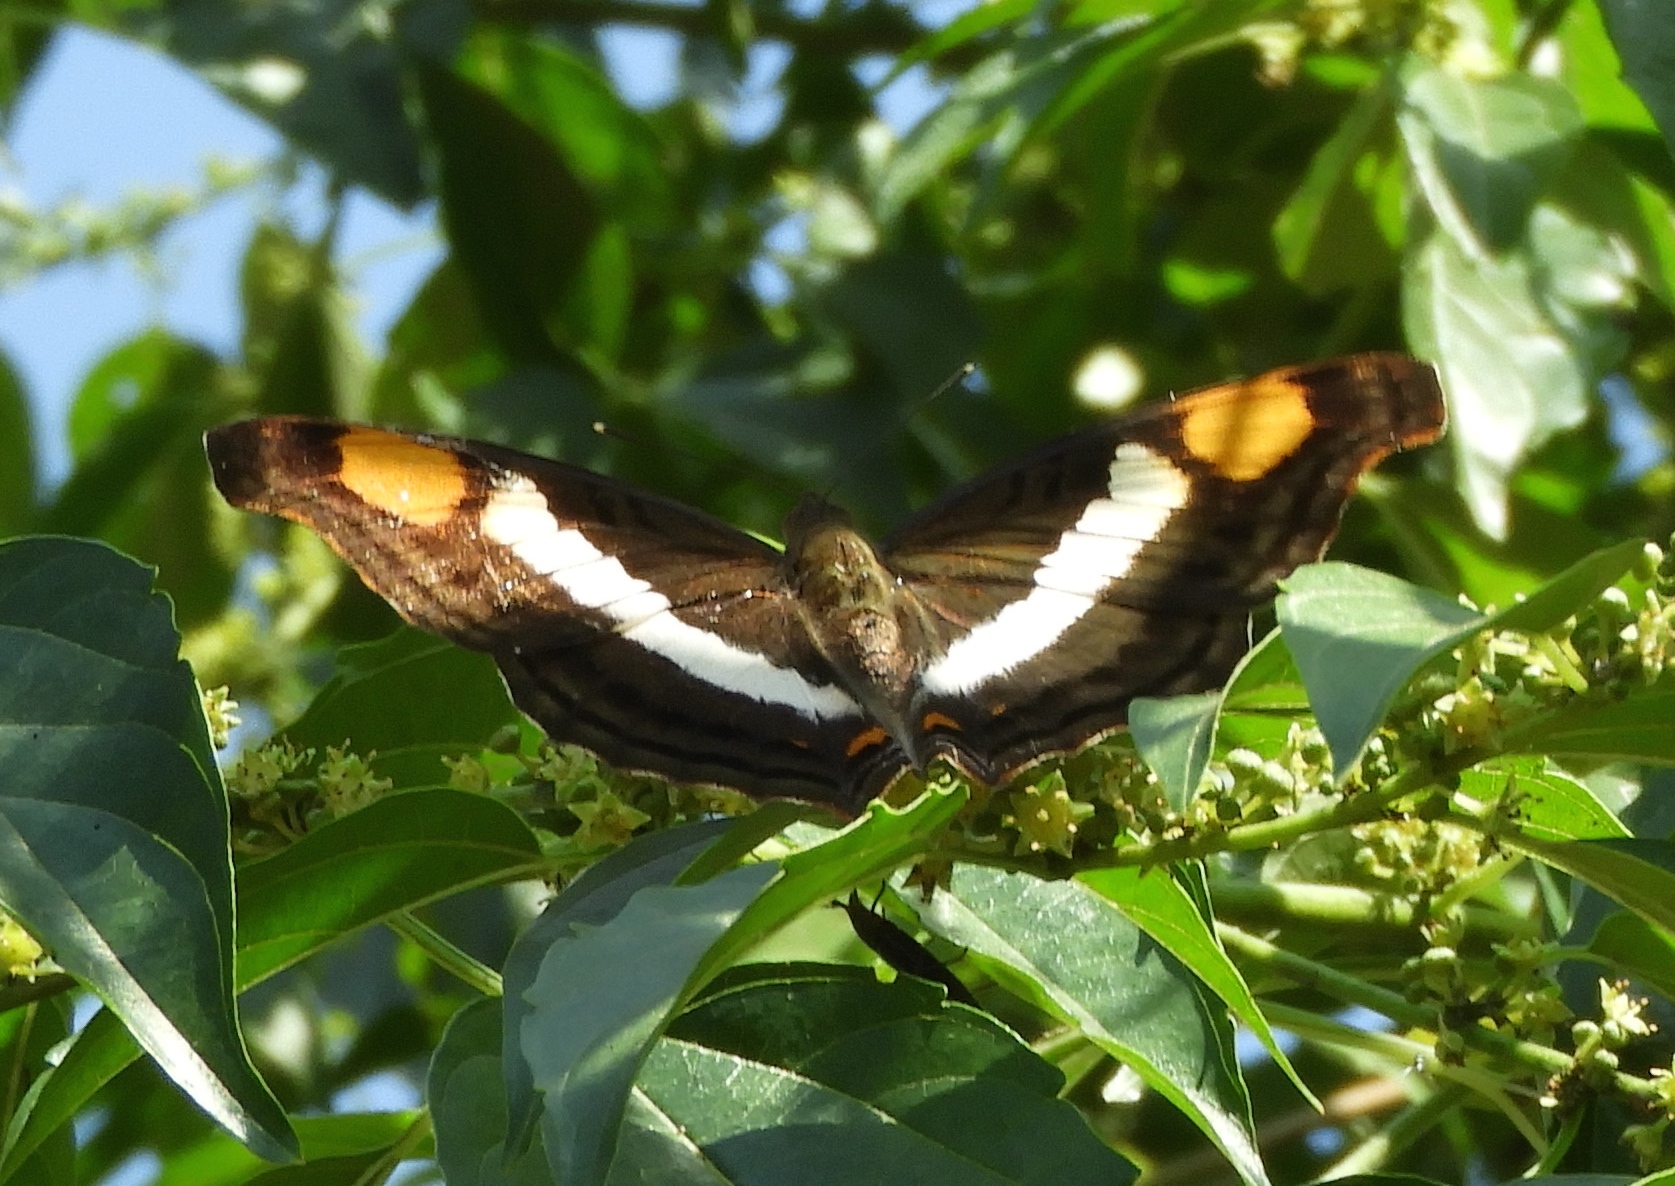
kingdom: Animalia
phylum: Arthropoda
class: Insecta
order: Lepidoptera
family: Nymphalidae
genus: Doxocopa
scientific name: Doxocopa laure
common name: Silver emperor
